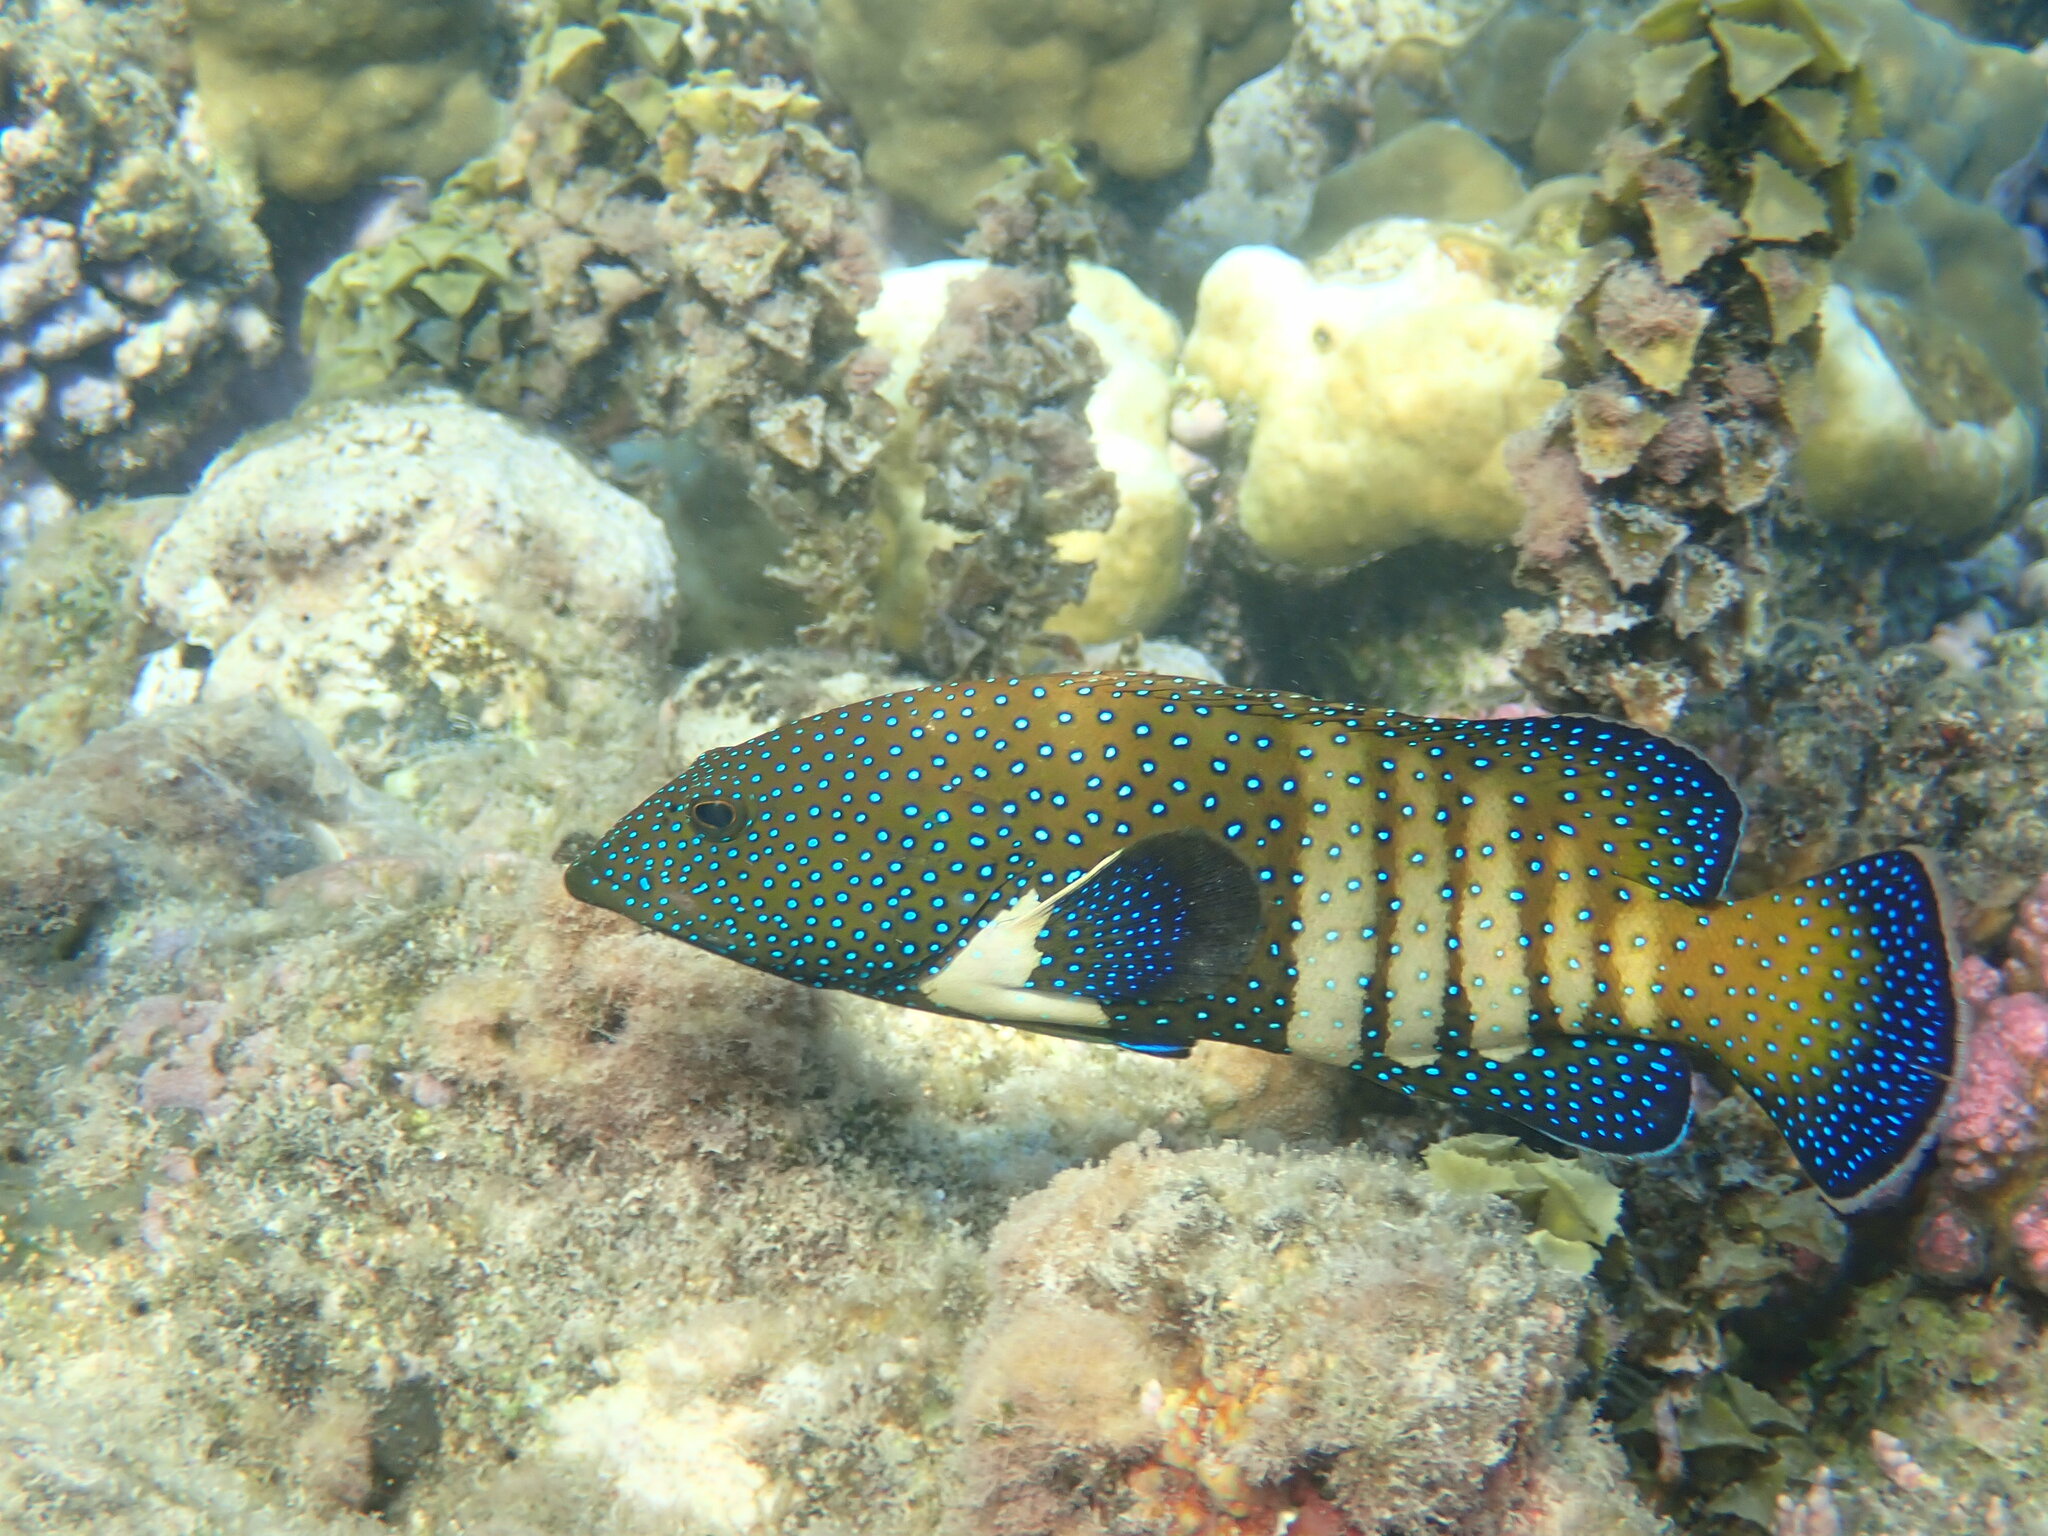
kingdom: Animalia
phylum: Chordata
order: Perciformes
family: Serranidae
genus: Cephalopholis
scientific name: Cephalopholis argus
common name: Peacock grouper
